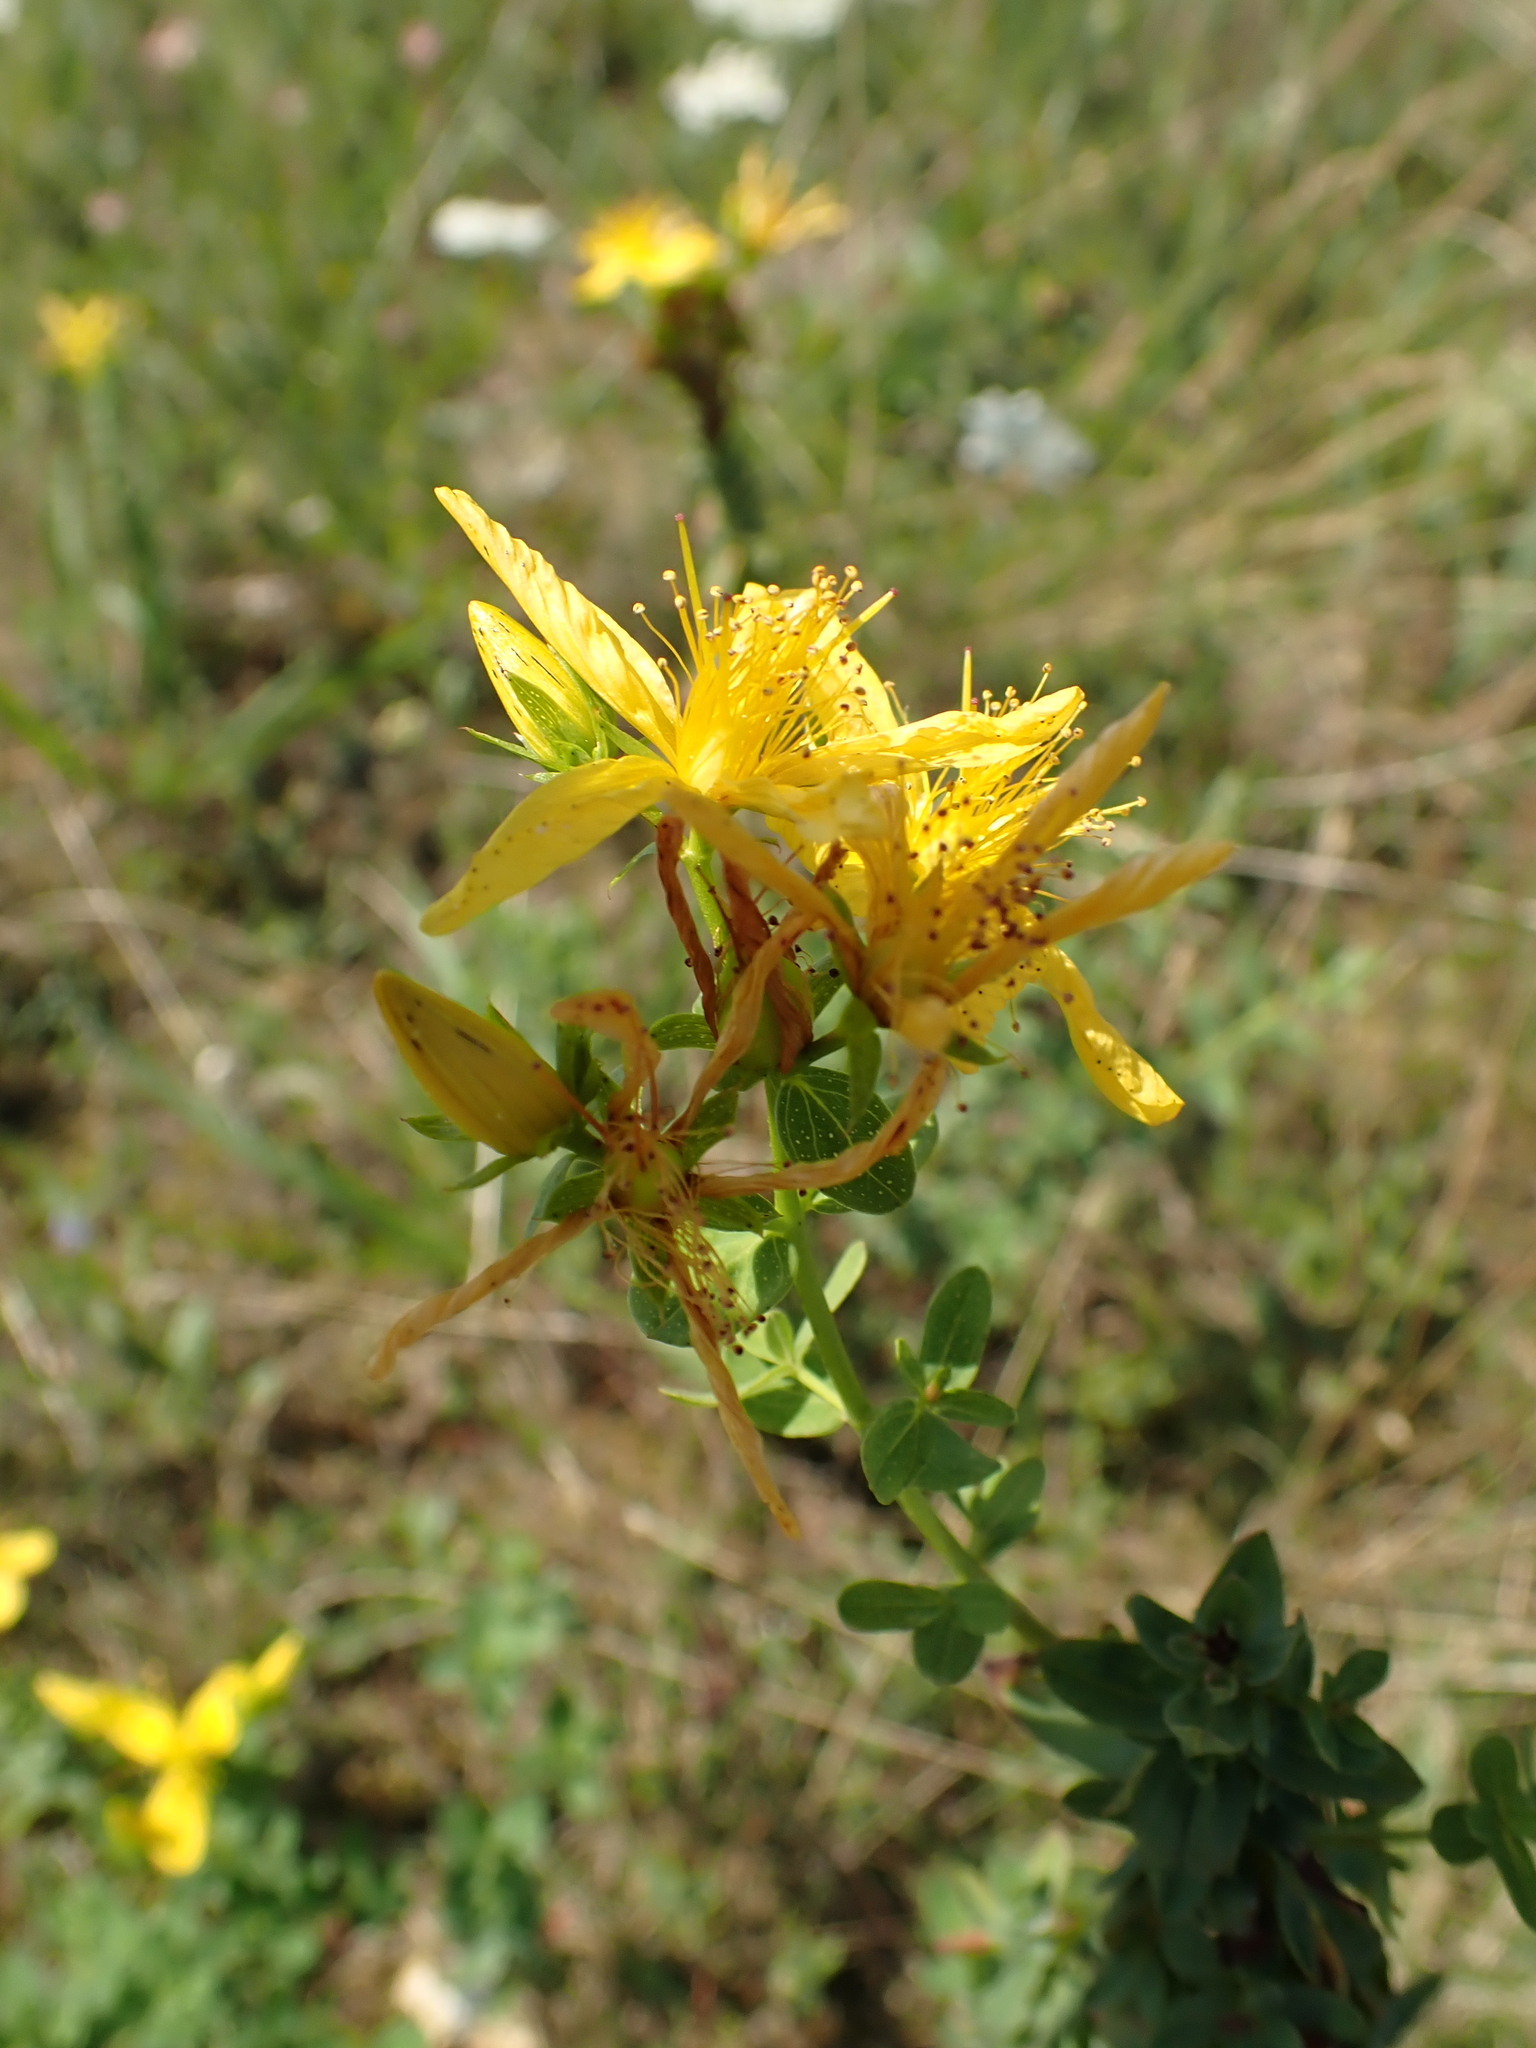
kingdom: Plantae
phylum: Tracheophyta
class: Magnoliopsida
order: Malpighiales
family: Hypericaceae
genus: Hypericum
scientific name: Hypericum perforatum
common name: Common st. johnswort
